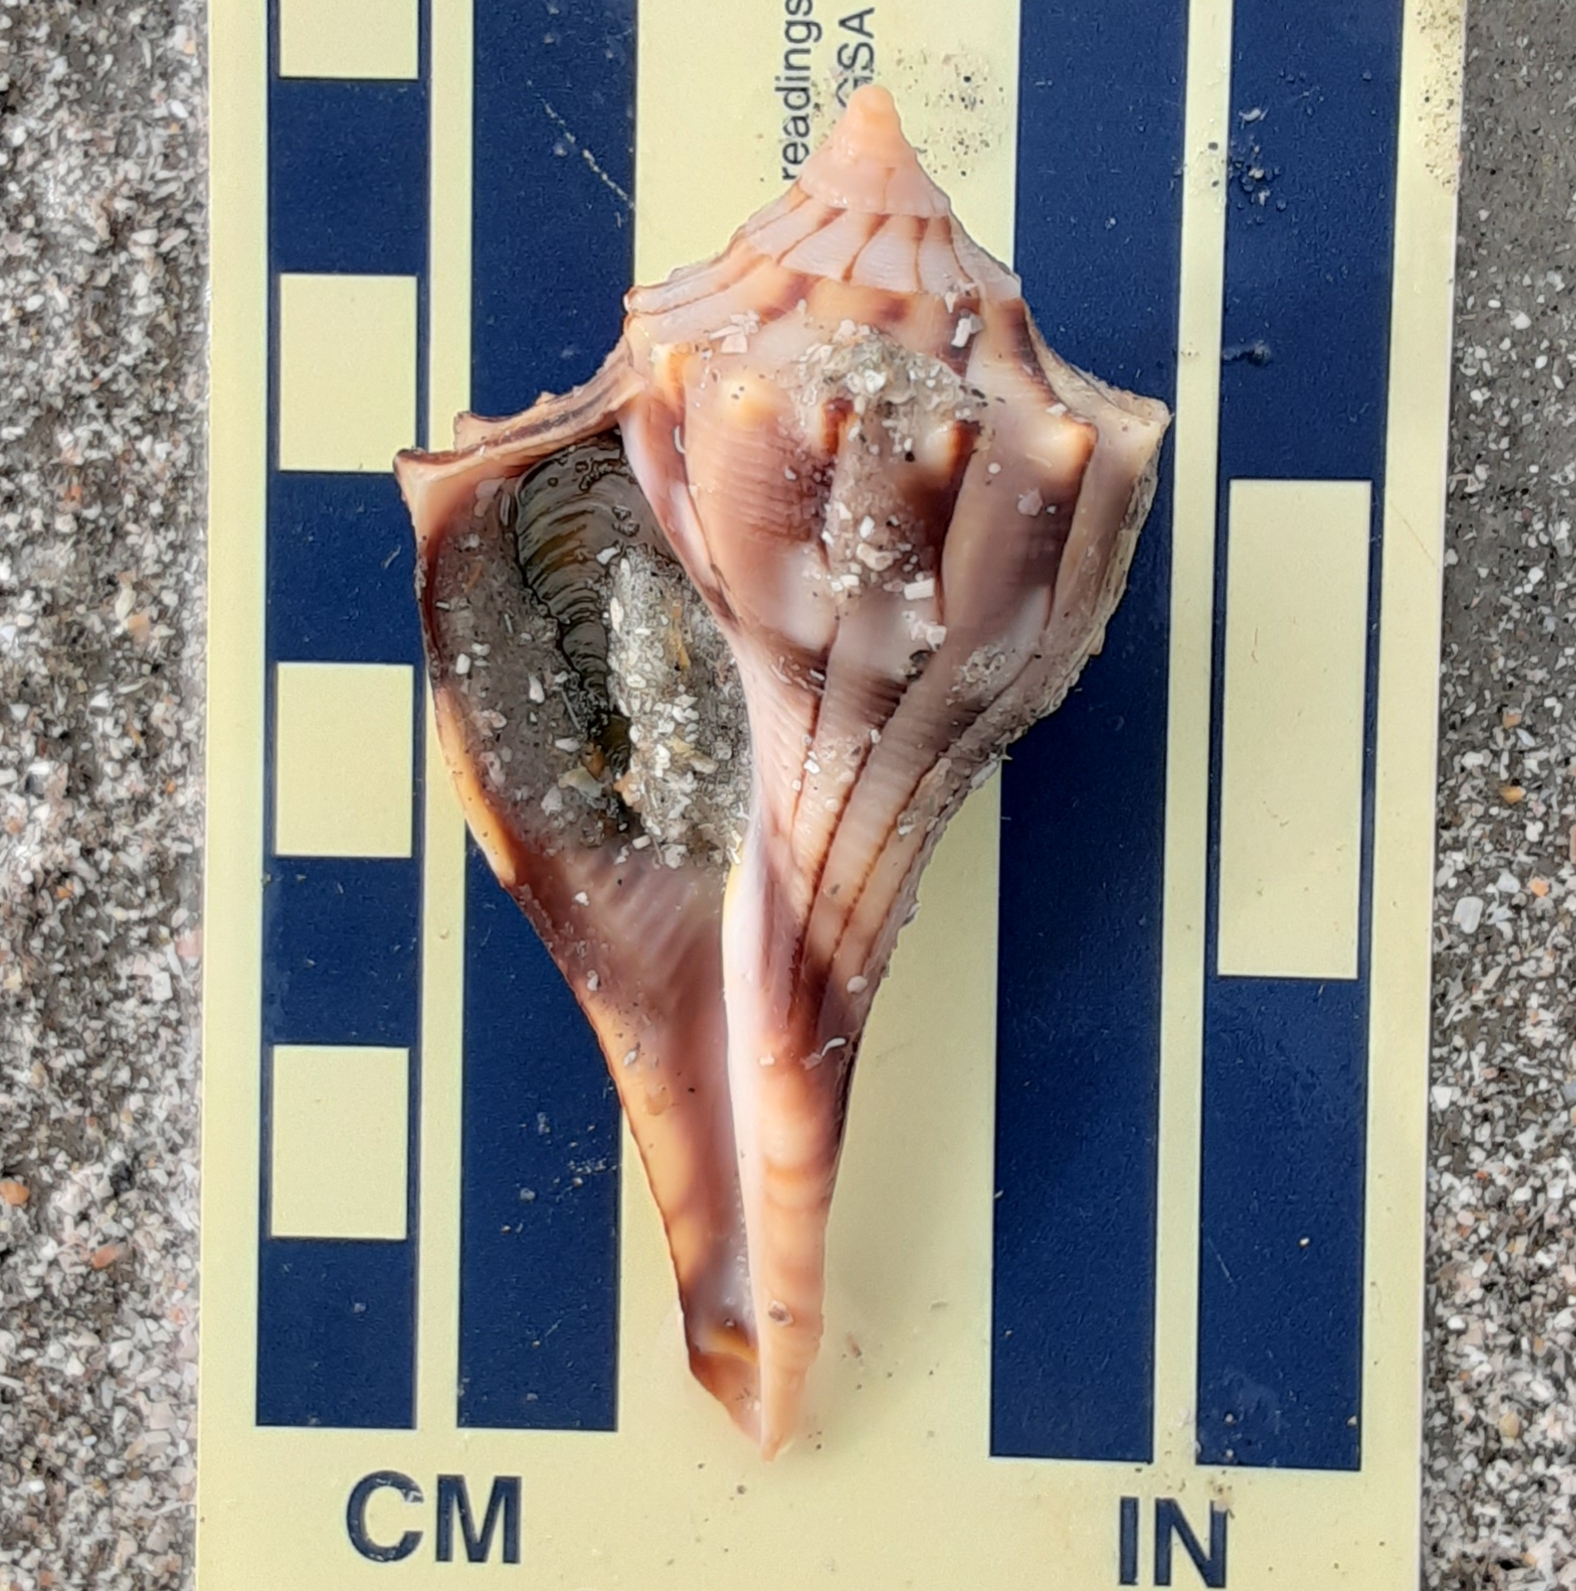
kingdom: Animalia
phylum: Mollusca
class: Gastropoda
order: Neogastropoda
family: Busyconidae
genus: Sinistrofulgur
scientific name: Sinistrofulgur sinistrum
